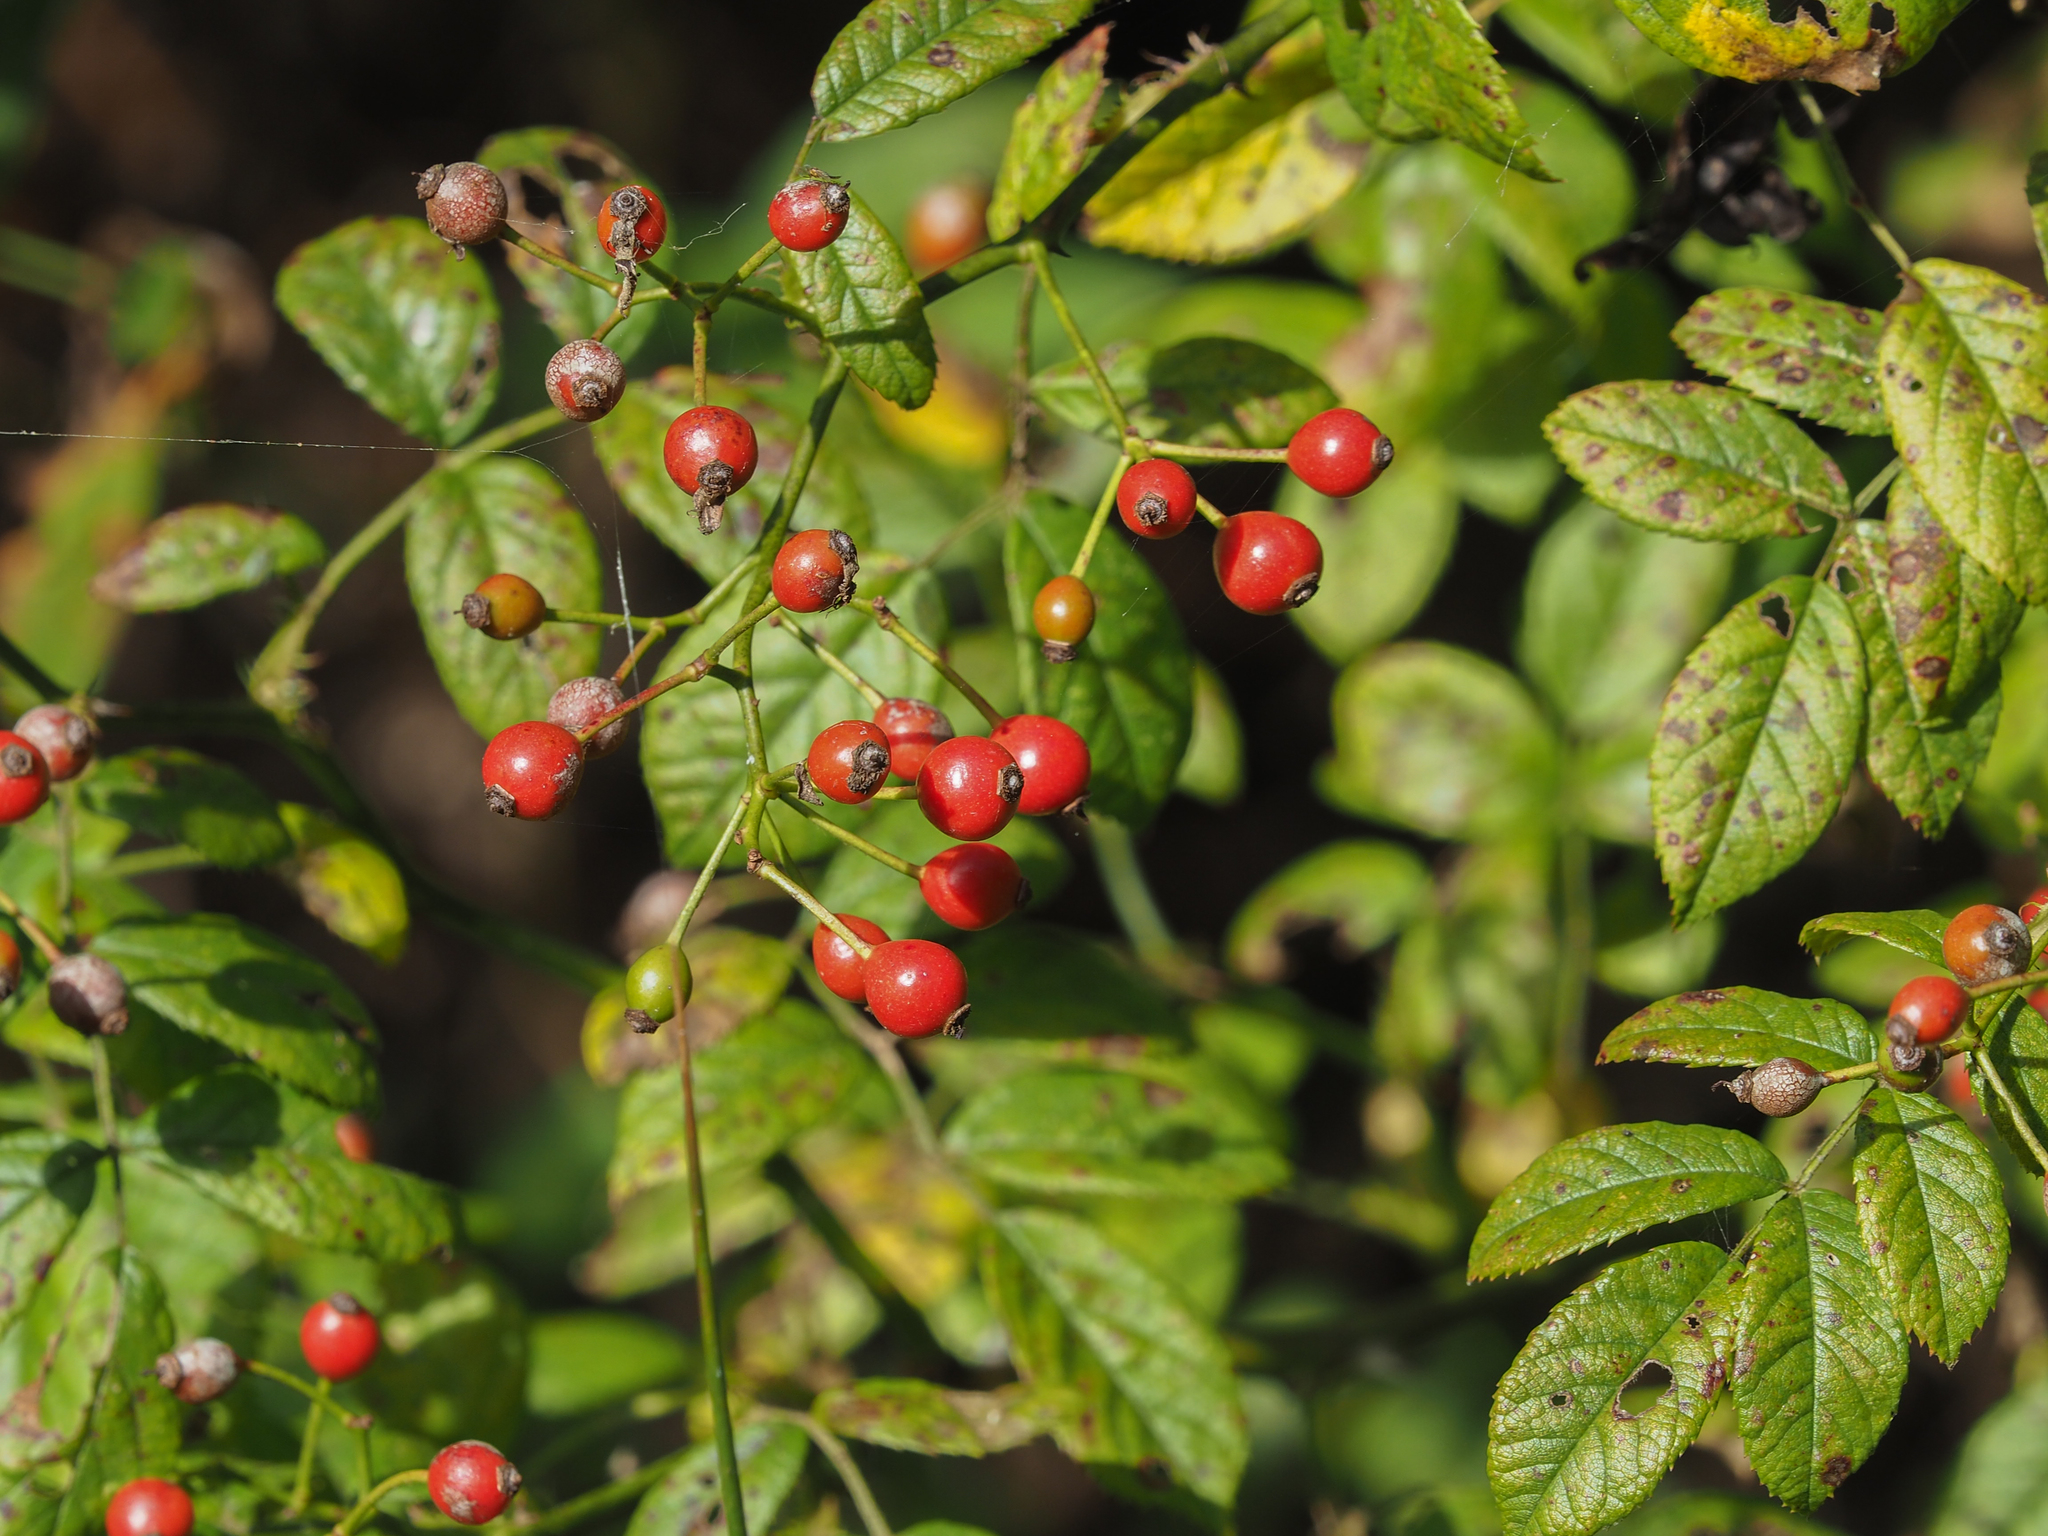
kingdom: Plantae
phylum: Tracheophyta
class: Magnoliopsida
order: Rosales
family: Rosaceae
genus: Rosa
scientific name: Rosa multiflora
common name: Multiflora rose
